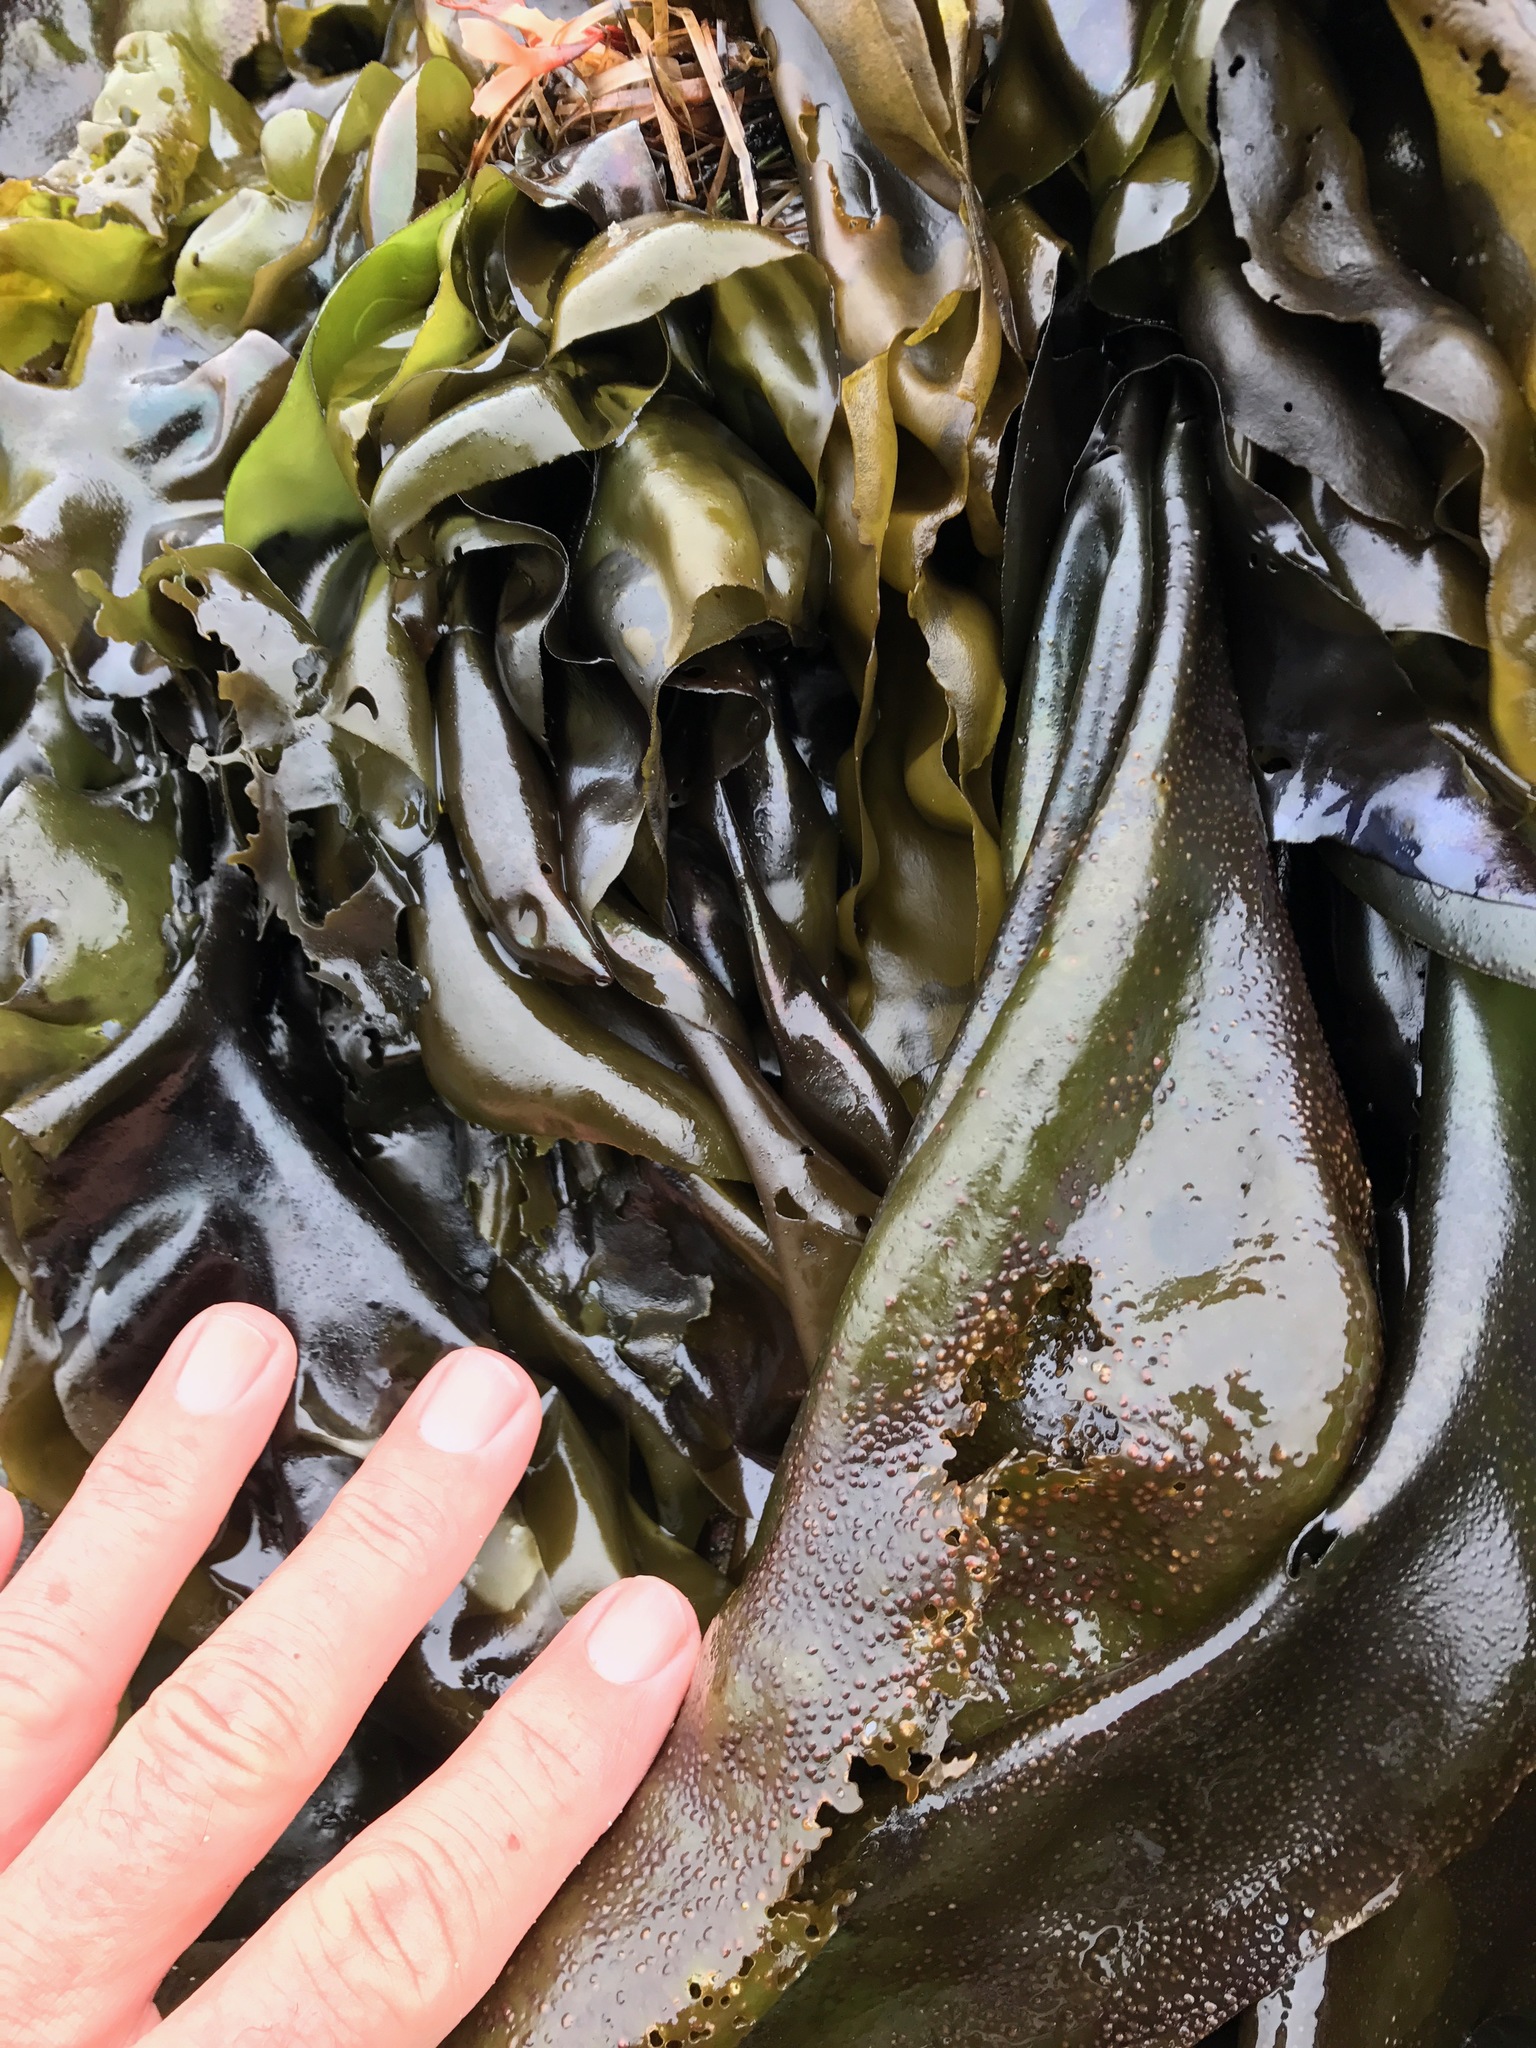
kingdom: Plantae
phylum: Rhodophyta
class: Florideophyceae
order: Gigartinales
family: Gigartinaceae
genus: Mazzaella
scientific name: Mazzaella flaccida
